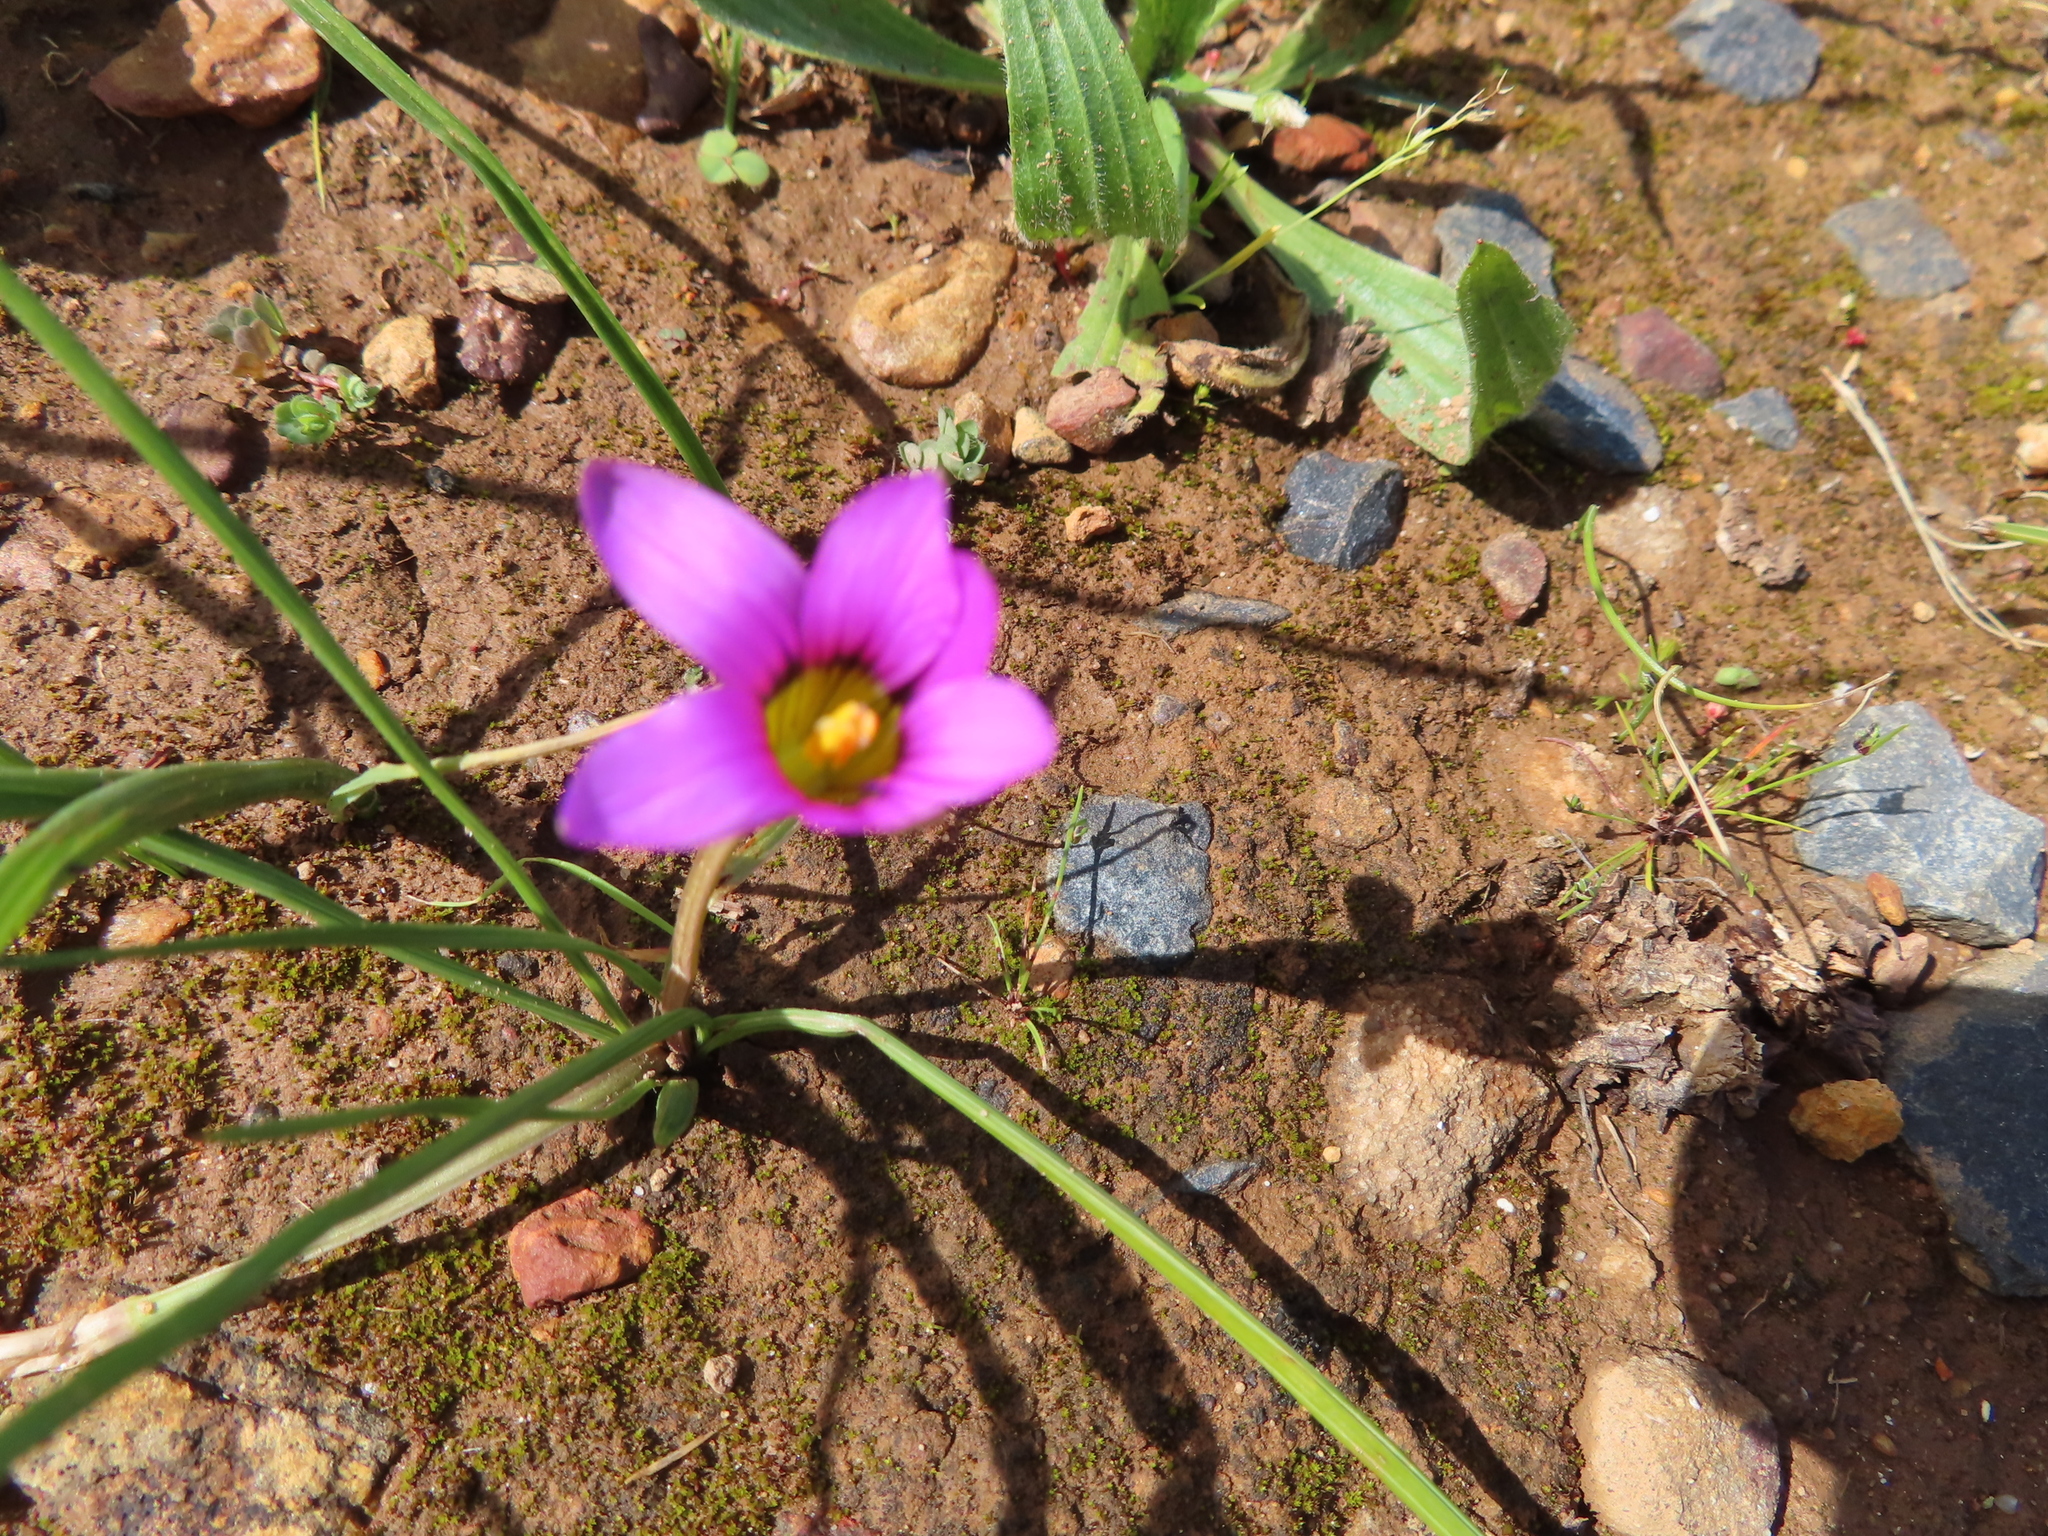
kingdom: Plantae
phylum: Tracheophyta
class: Liliopsida
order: Asparagales
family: Iridaceae
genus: Romulea
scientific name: Romulea rosea
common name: Oniongrass
